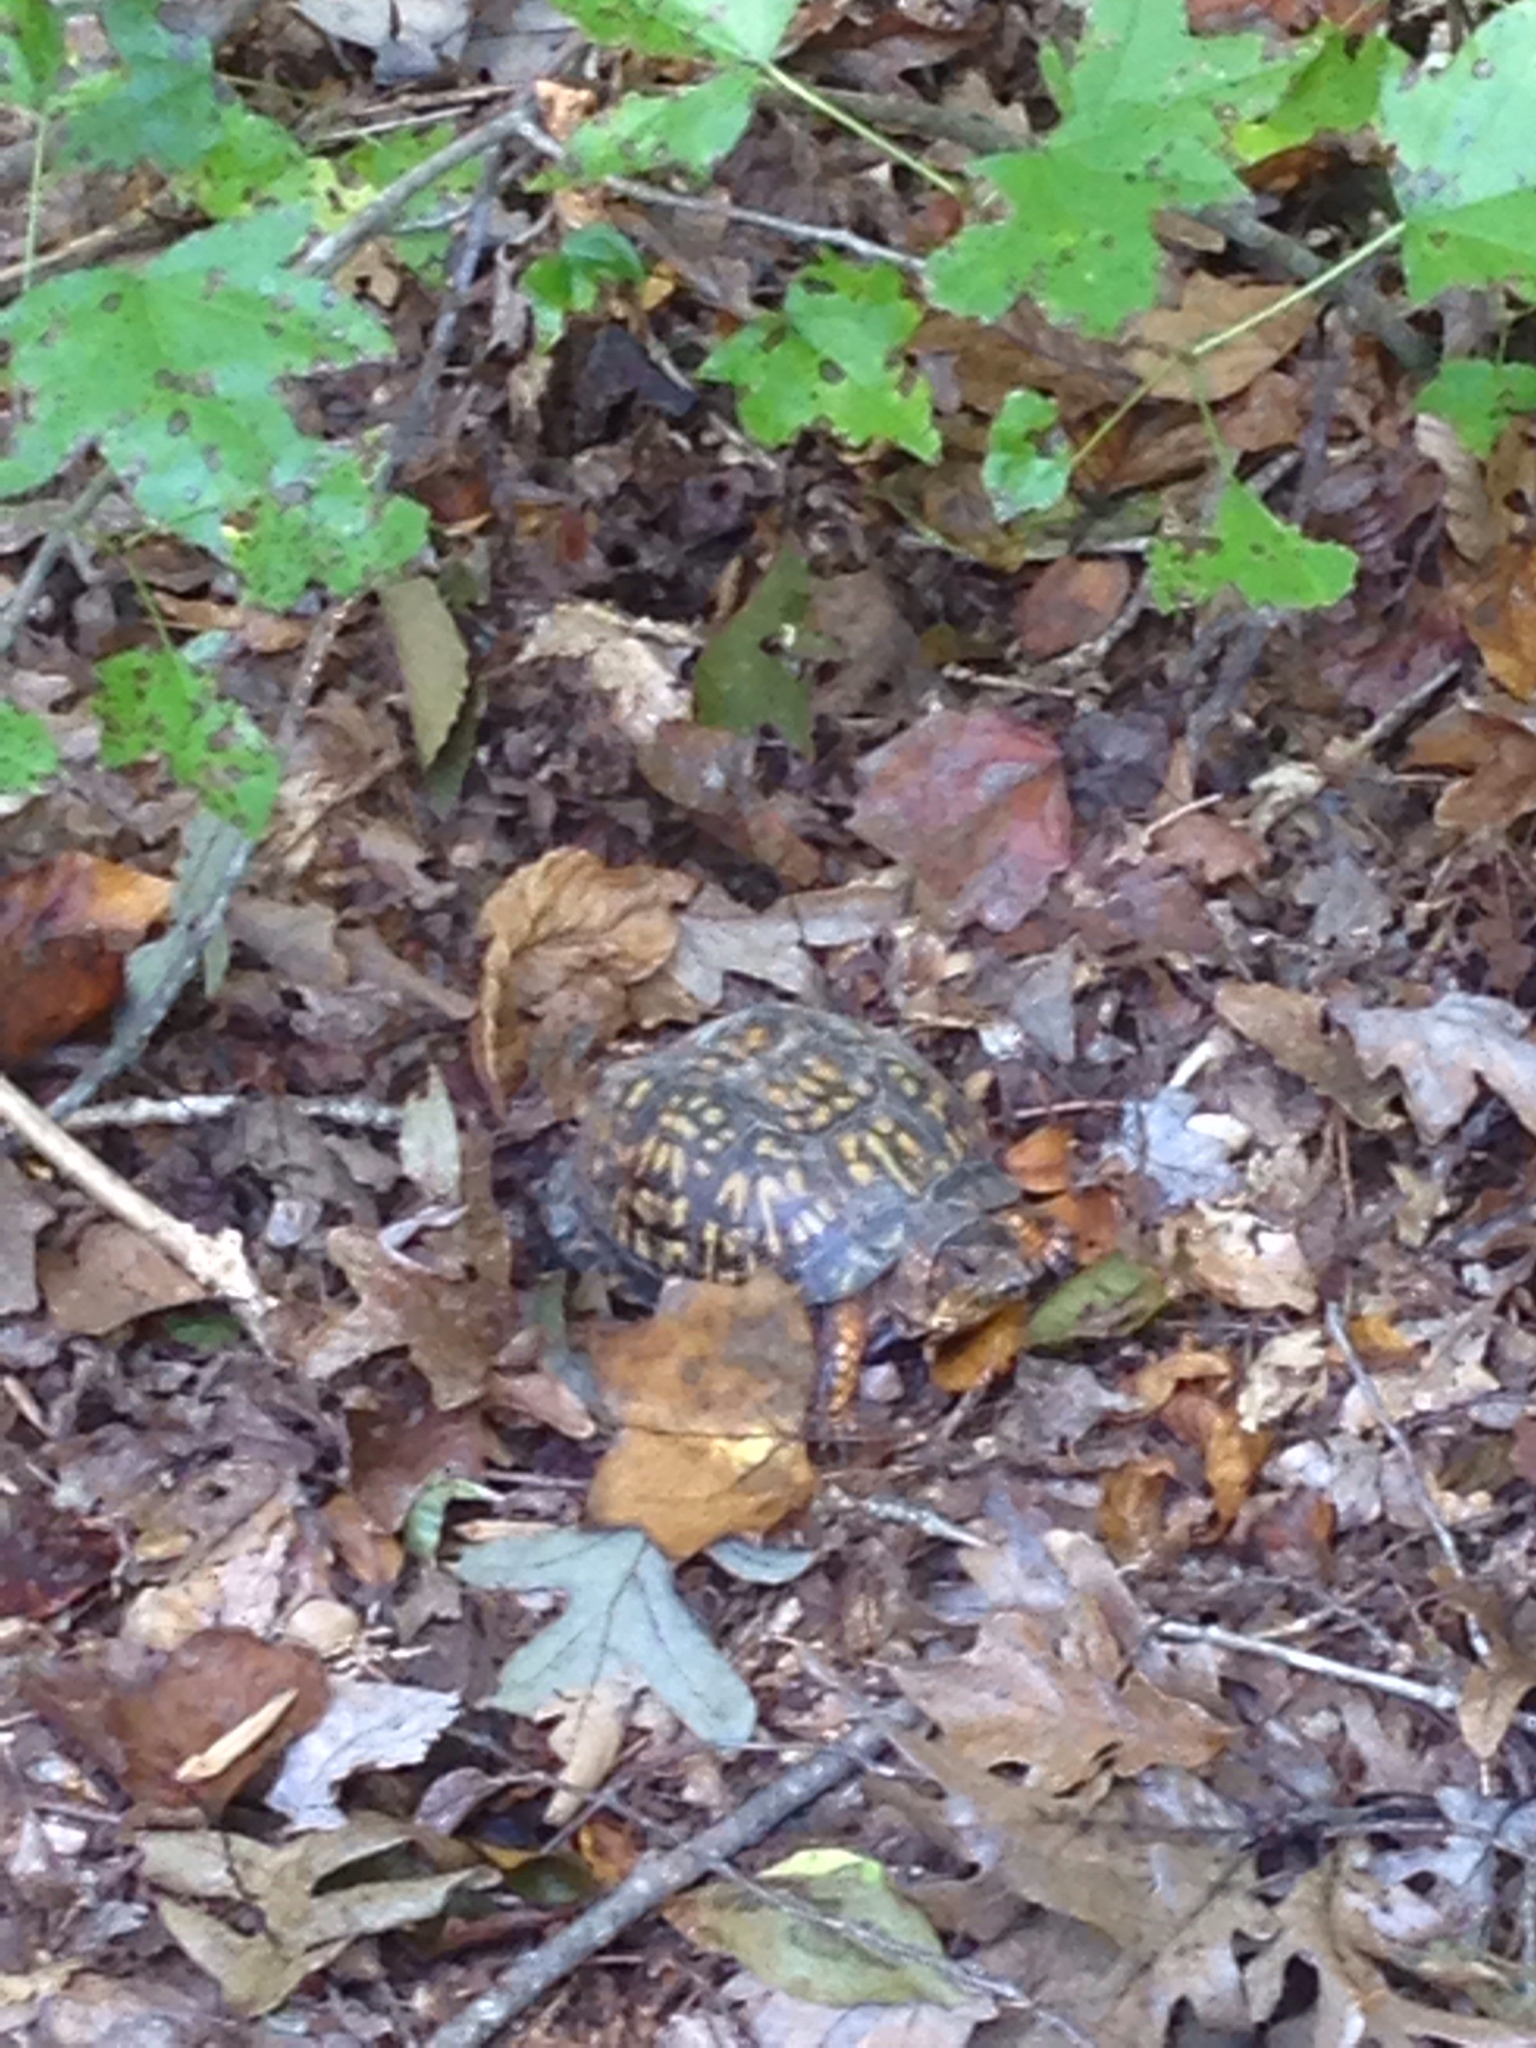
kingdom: Animalia
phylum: Chordata
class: Testudines
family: Emydidae
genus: Terrapene
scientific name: Terrapene carolina
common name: Common box turtle
